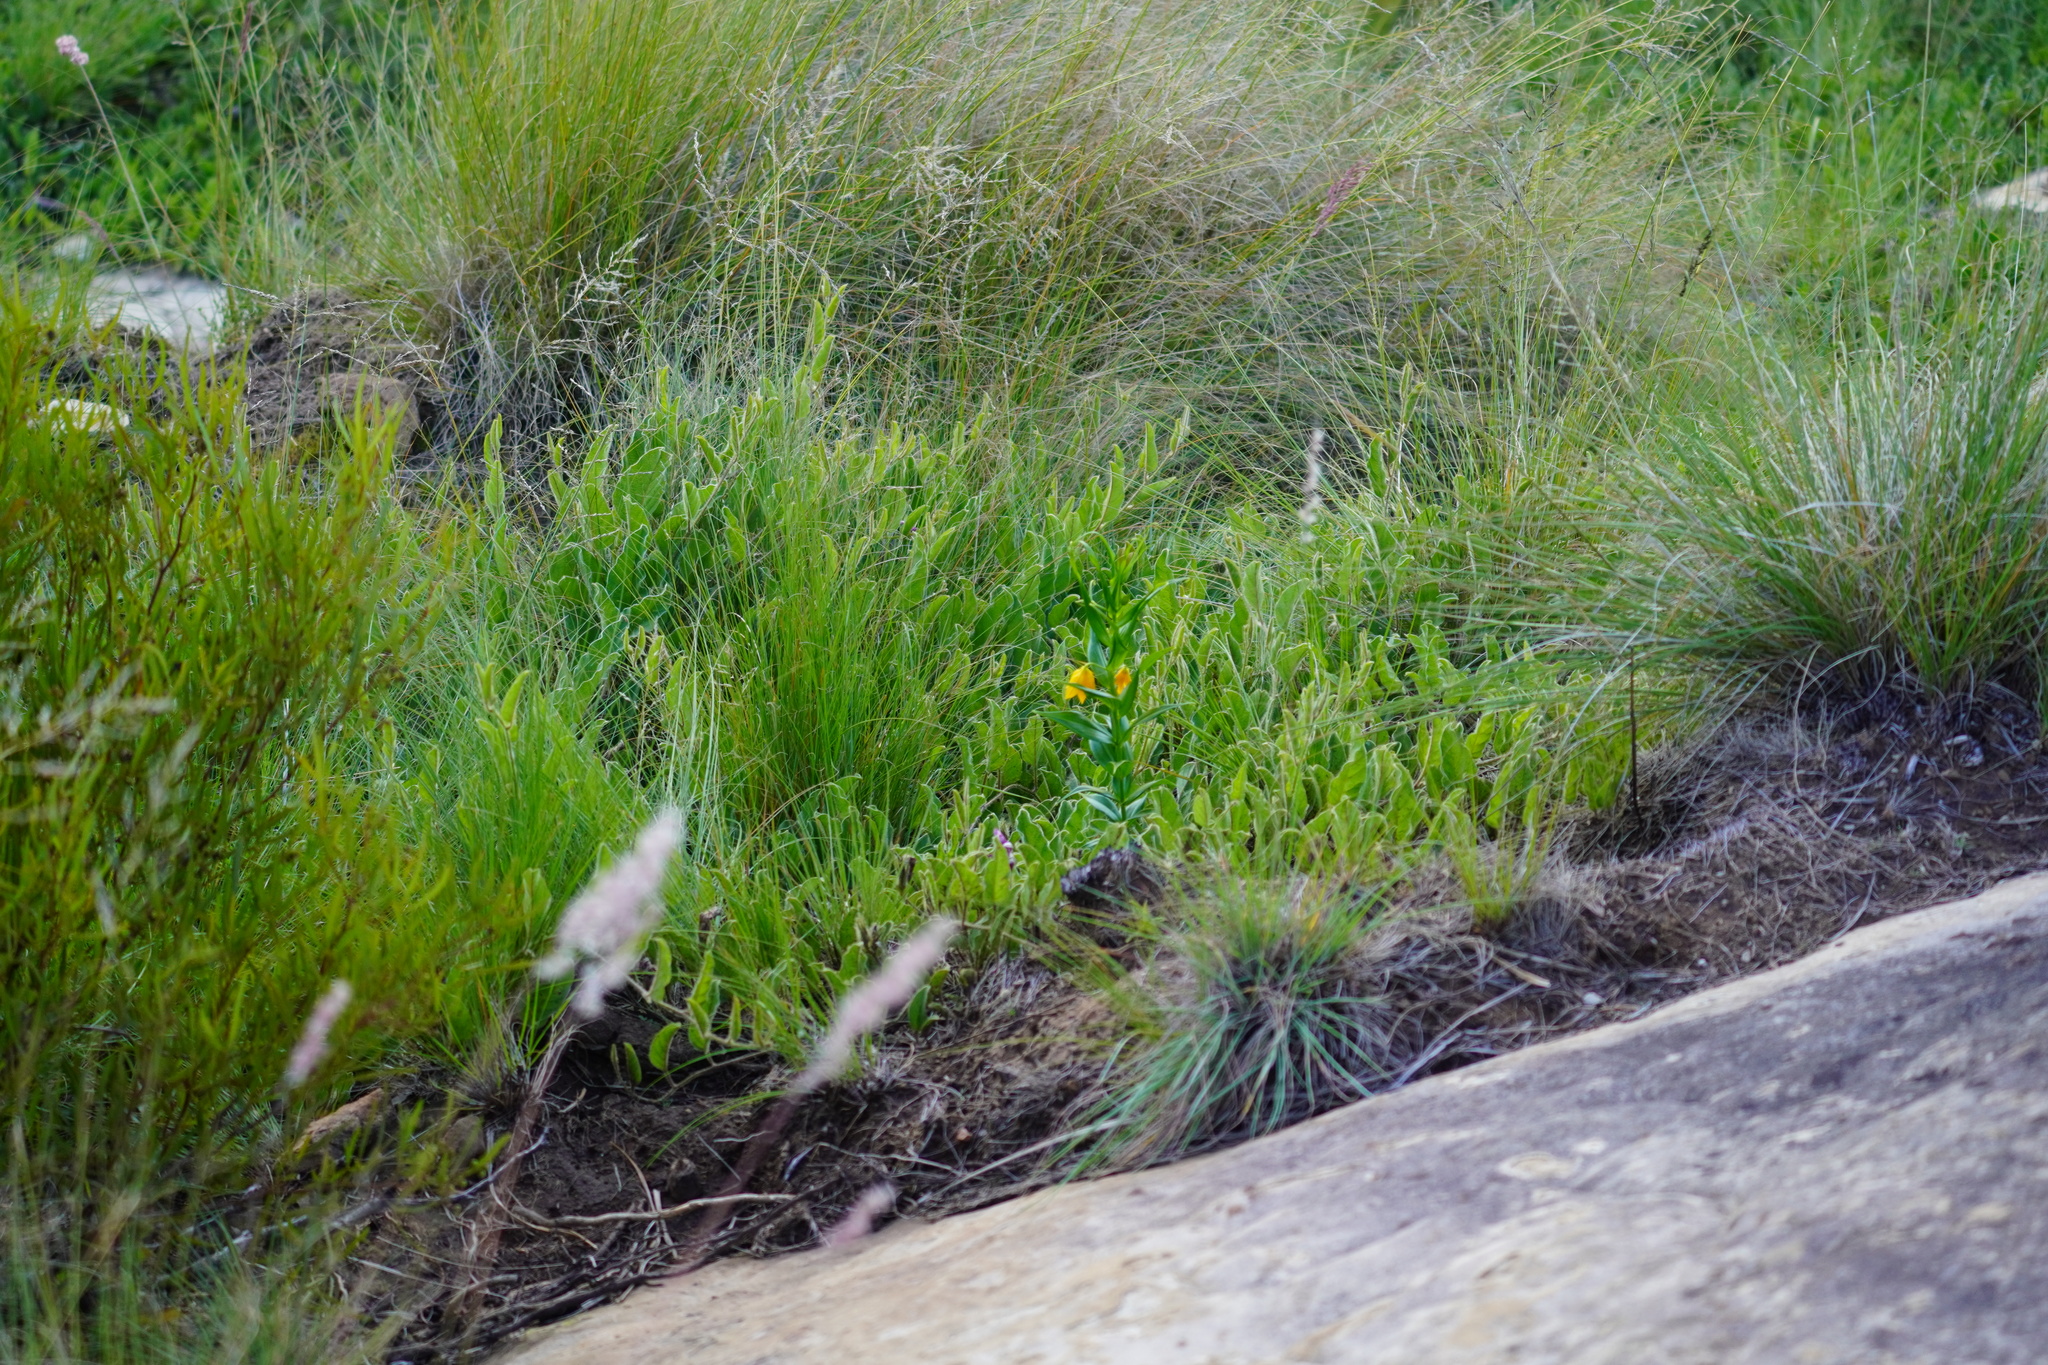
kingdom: Plantae
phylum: Tracheophyta
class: Liliopsida
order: Liliales
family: Colchicaceae
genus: Gloriosa
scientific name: Gloriosa modesta
